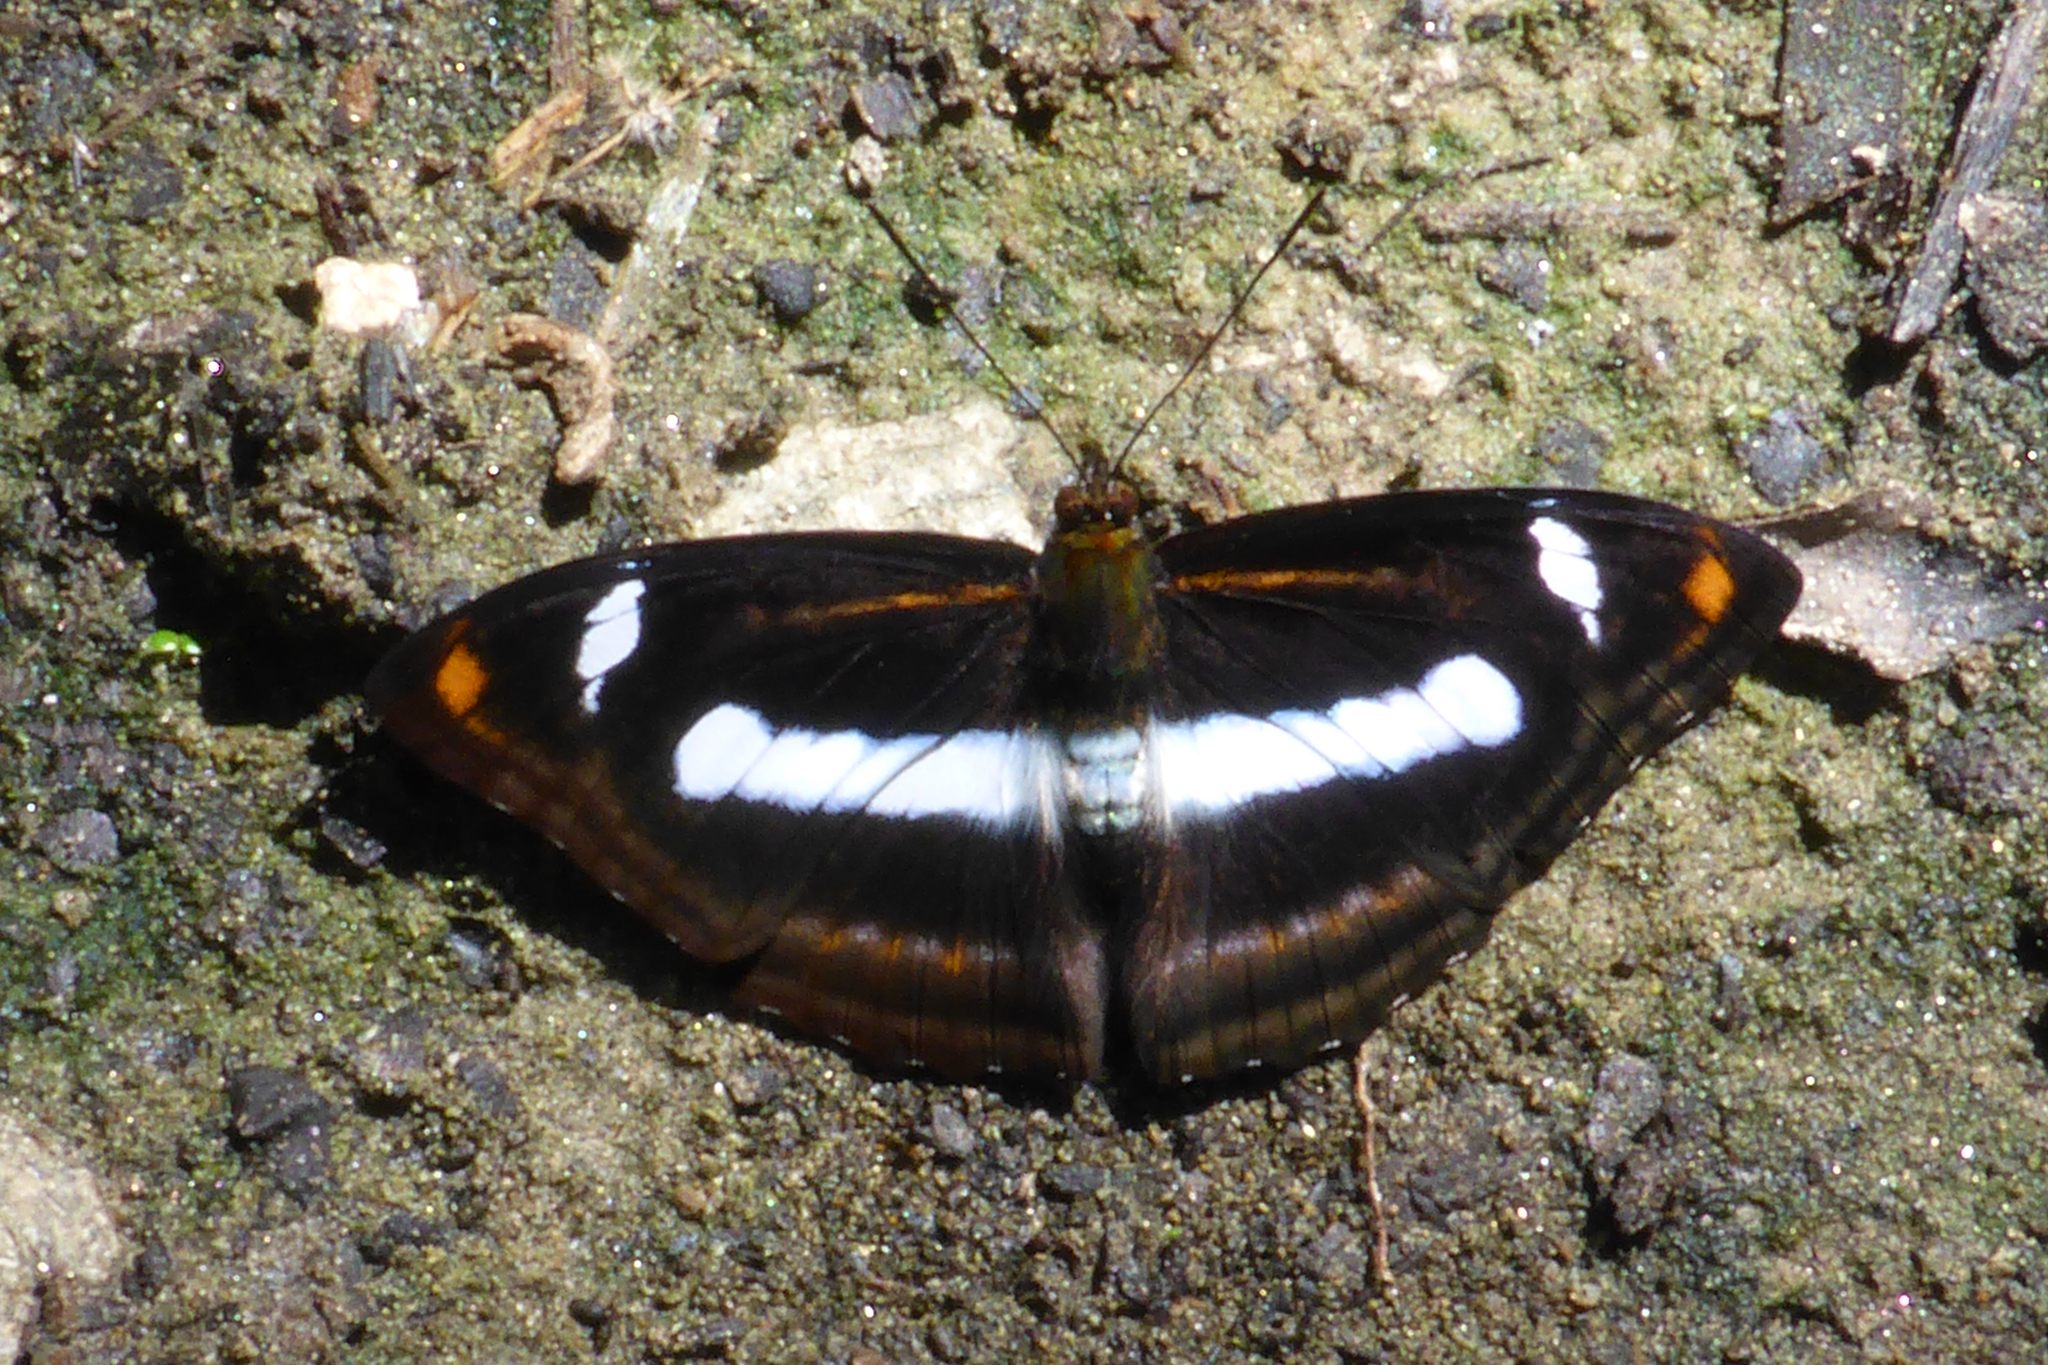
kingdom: Animalia
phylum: Arthropoda
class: Insecta
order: Lepidoptera
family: Nymphalidae
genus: Pantoporia
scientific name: Pantoporia cama
